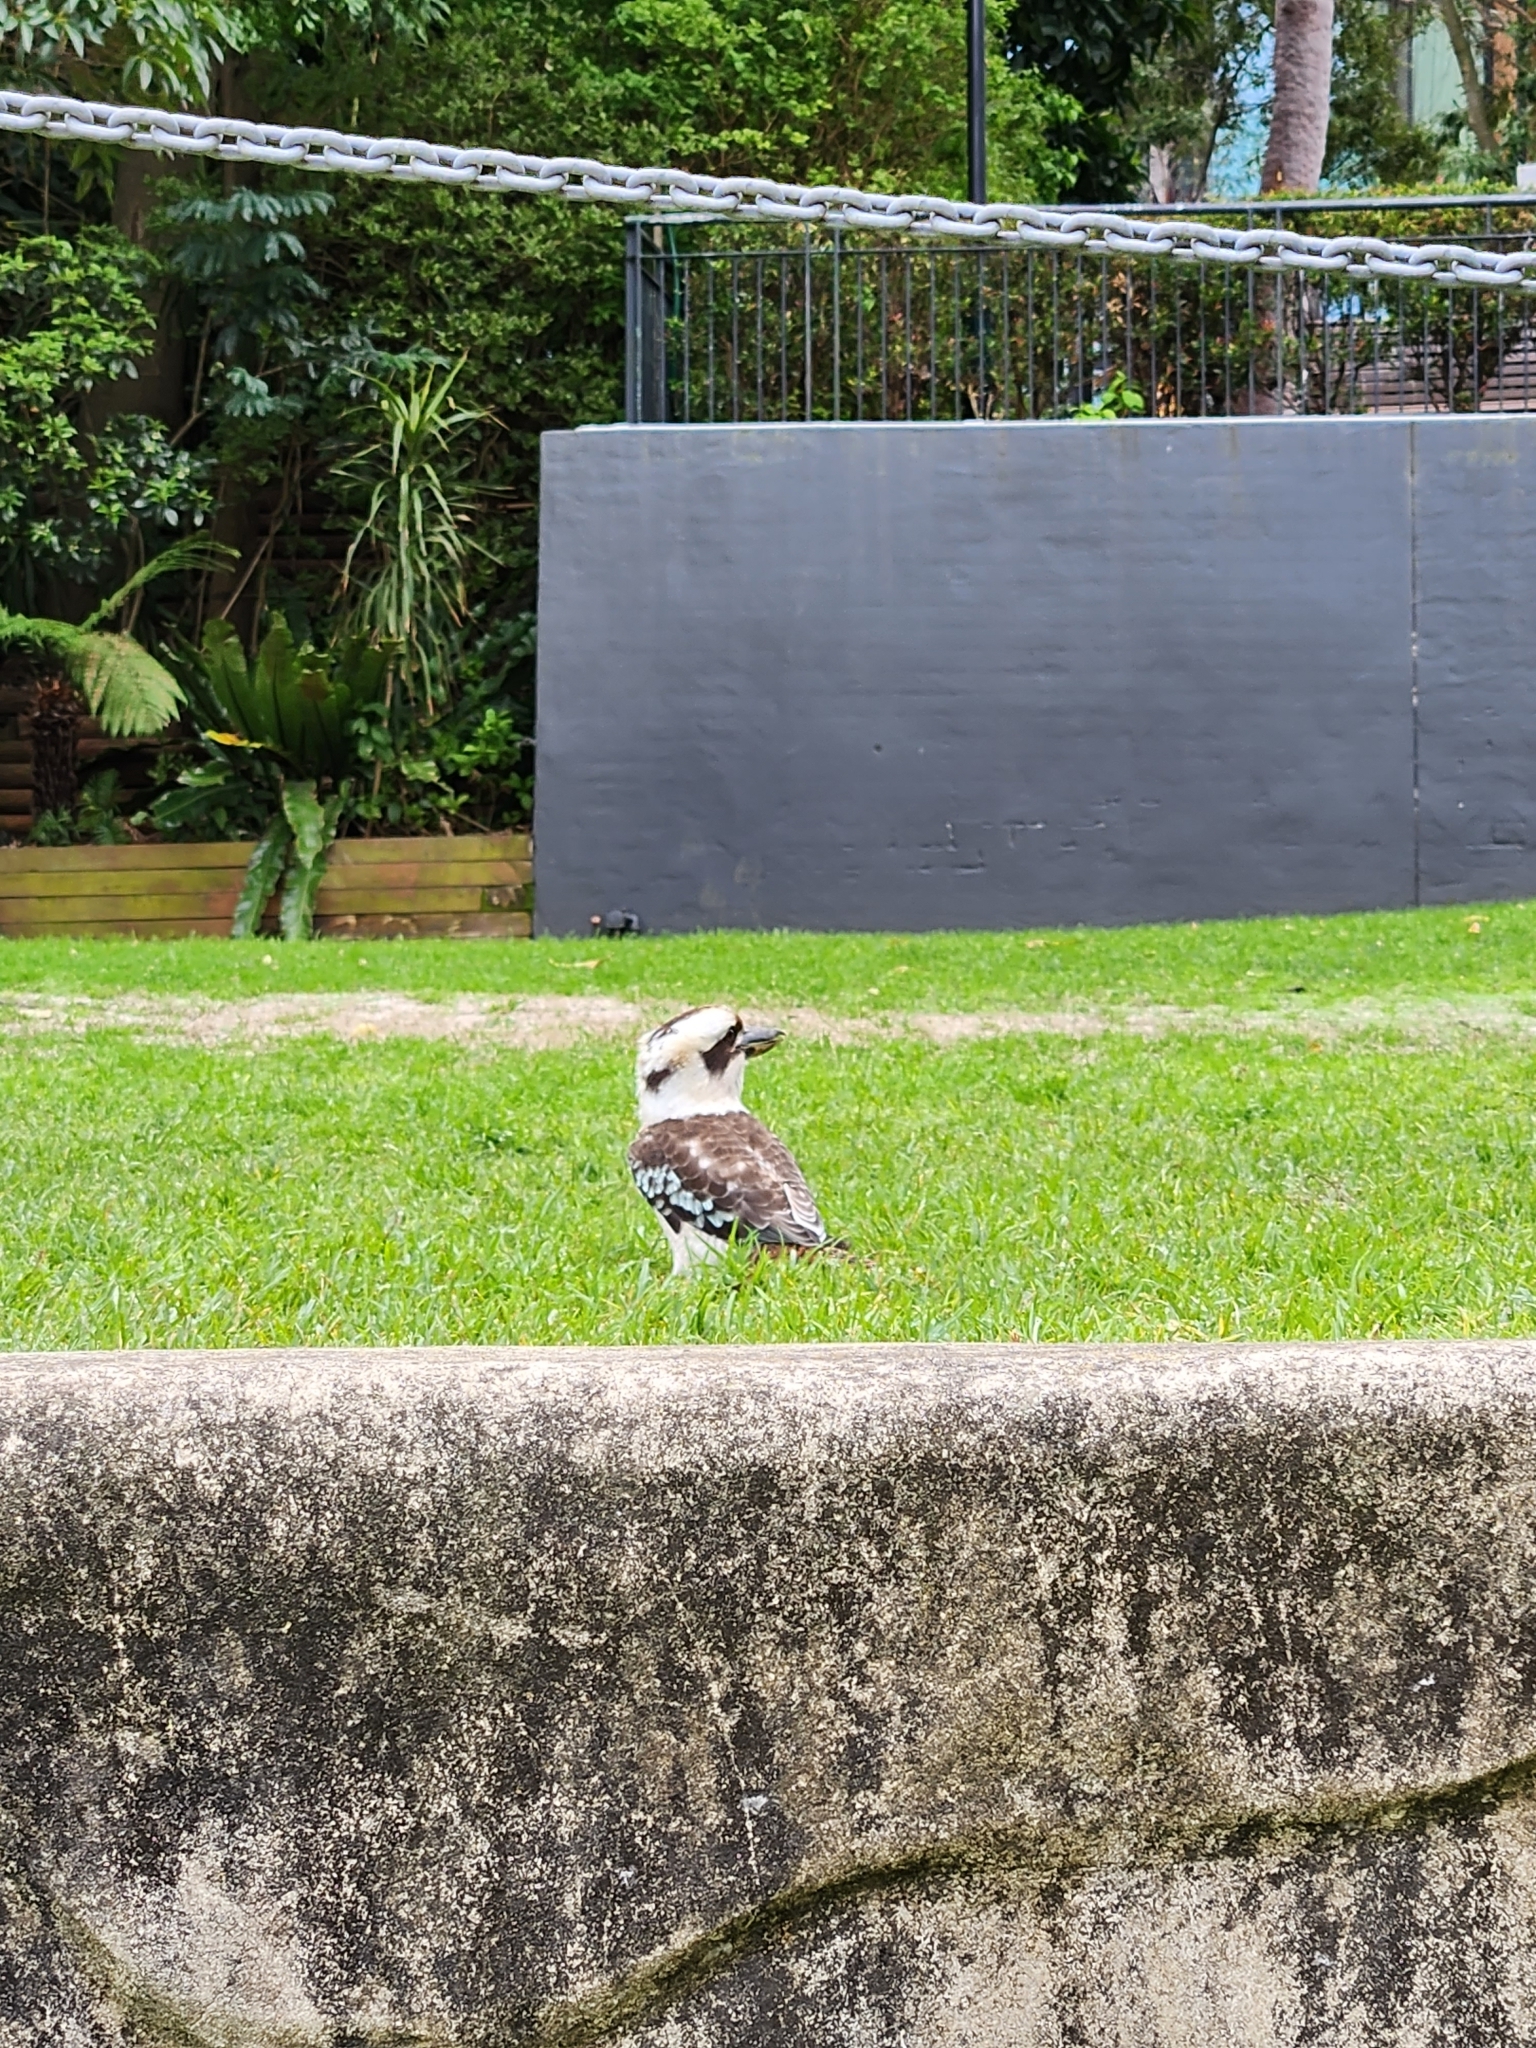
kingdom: Animalia
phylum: Chordata
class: Aves
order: Coraciiformes
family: Alcedinidae
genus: Dacelo
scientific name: Dacelo novaeguineae
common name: Laughing kookaburra
